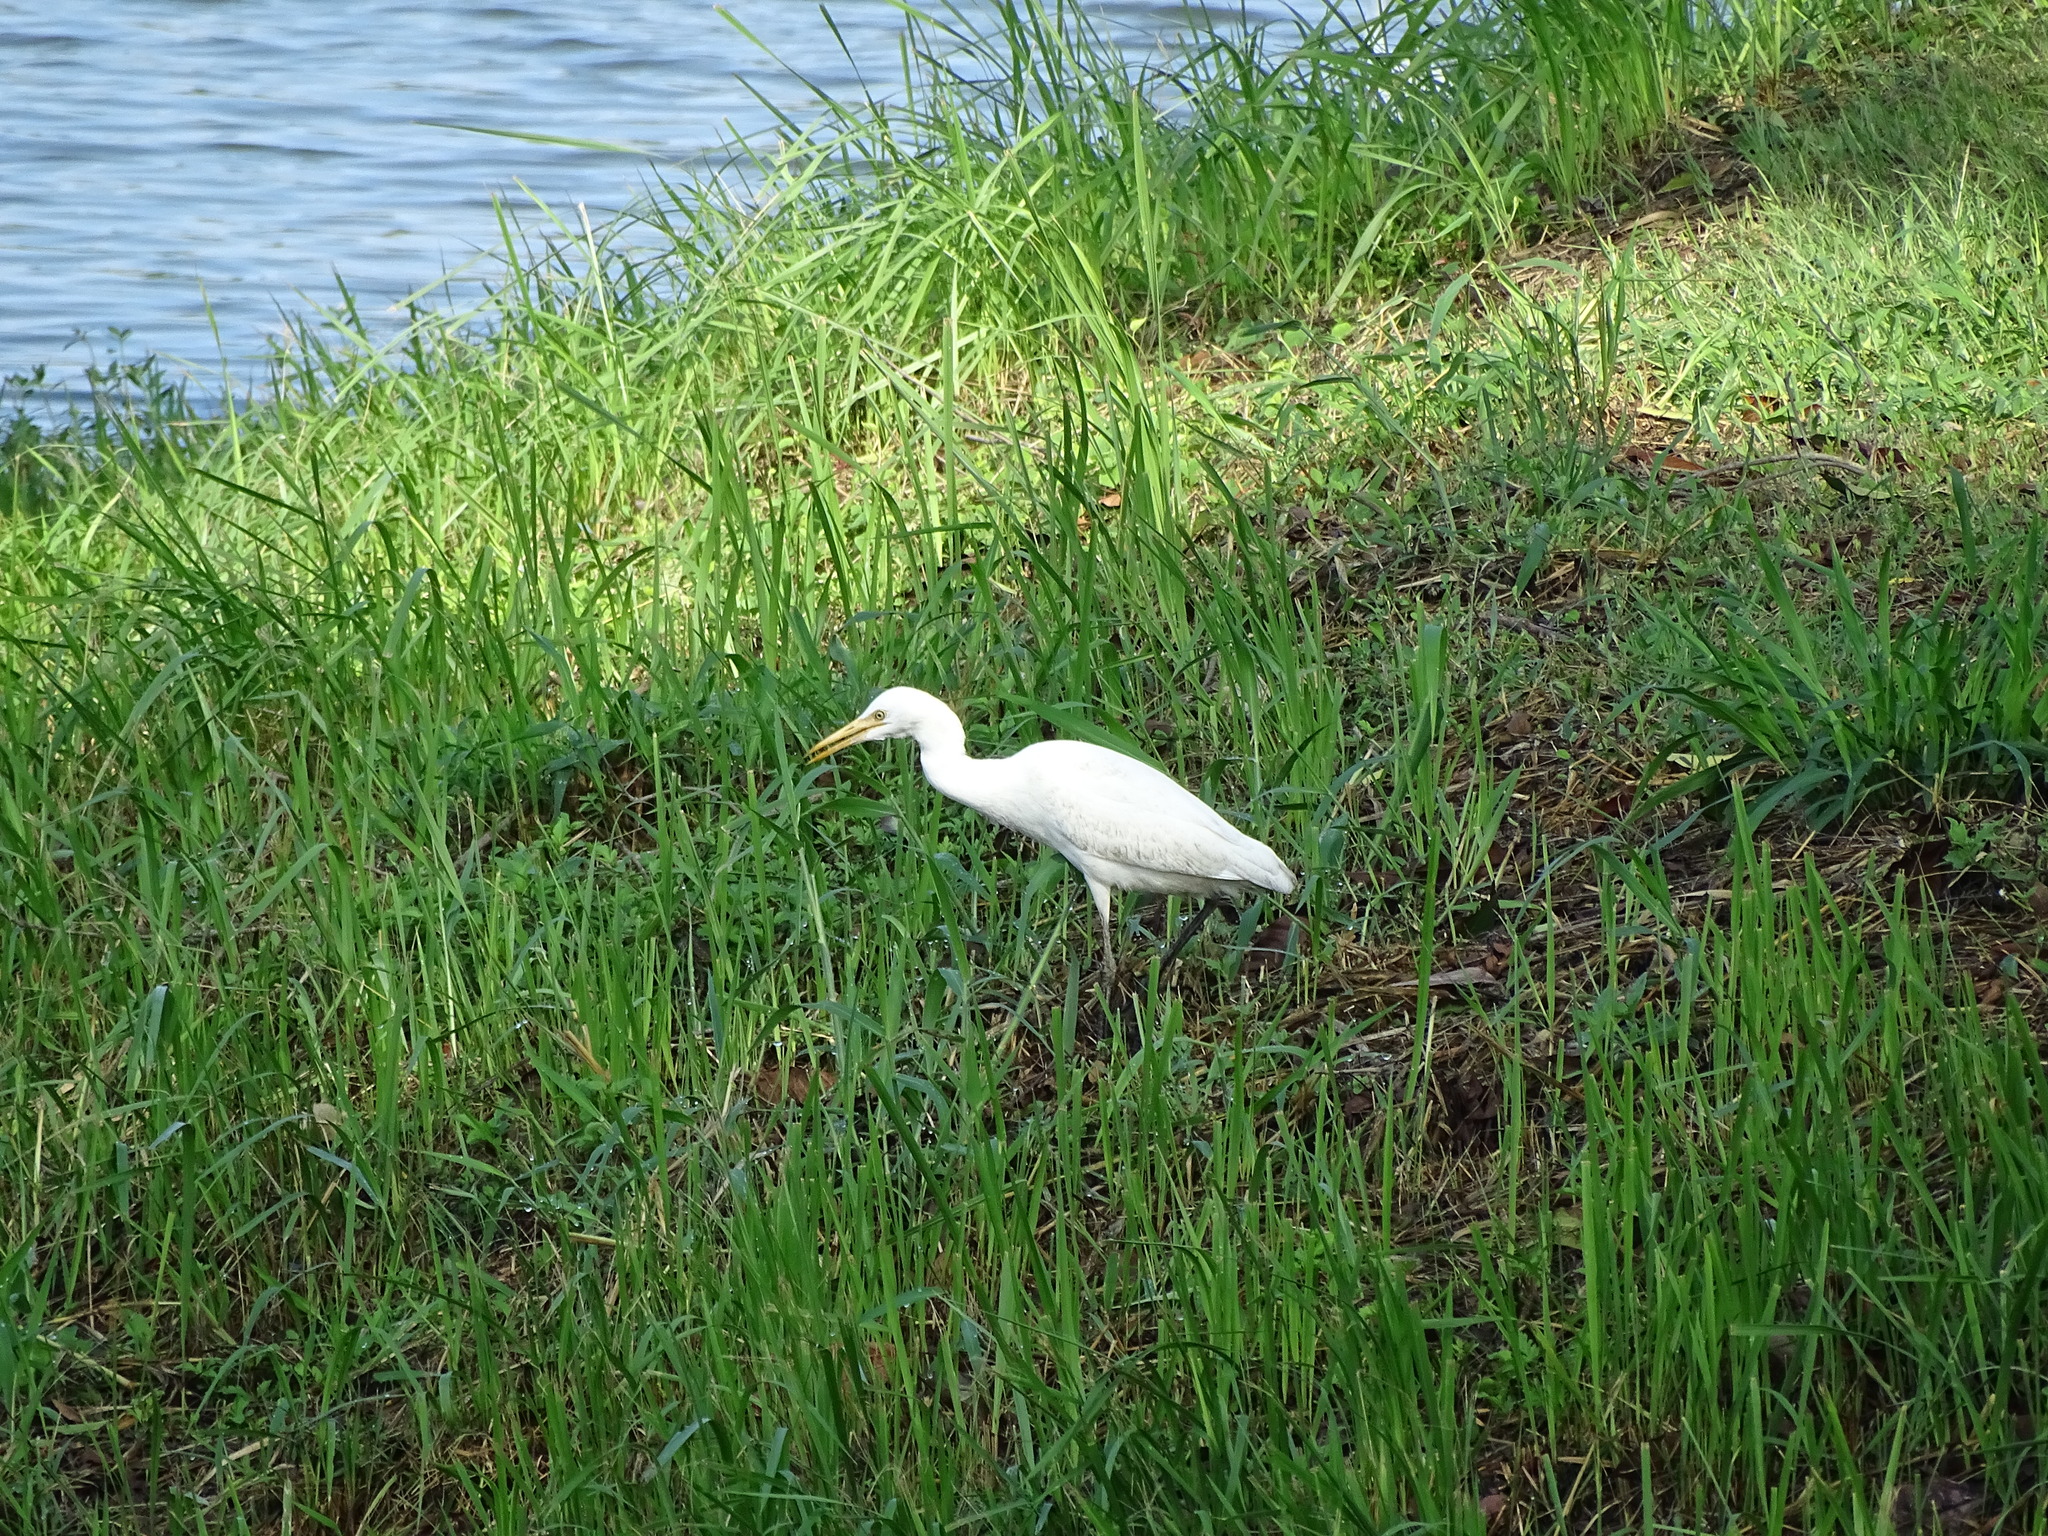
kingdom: Animalia
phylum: Chordata
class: Aves
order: Pelecaniformes
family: Ardeidae
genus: Bubulcus
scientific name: Bubulcus coromandus
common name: Eastern cattle egret
